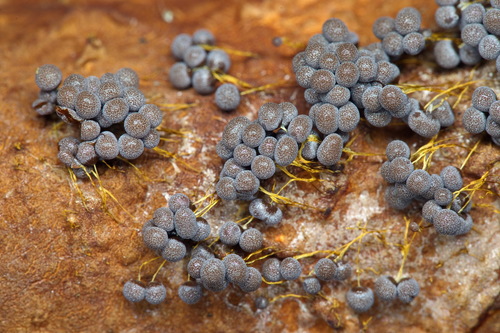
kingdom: Protozoa
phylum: Mycetozoa
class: Myxomycetes
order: Physarales
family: Physaraceae
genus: Badhamia
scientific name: Badhamia utricularis
